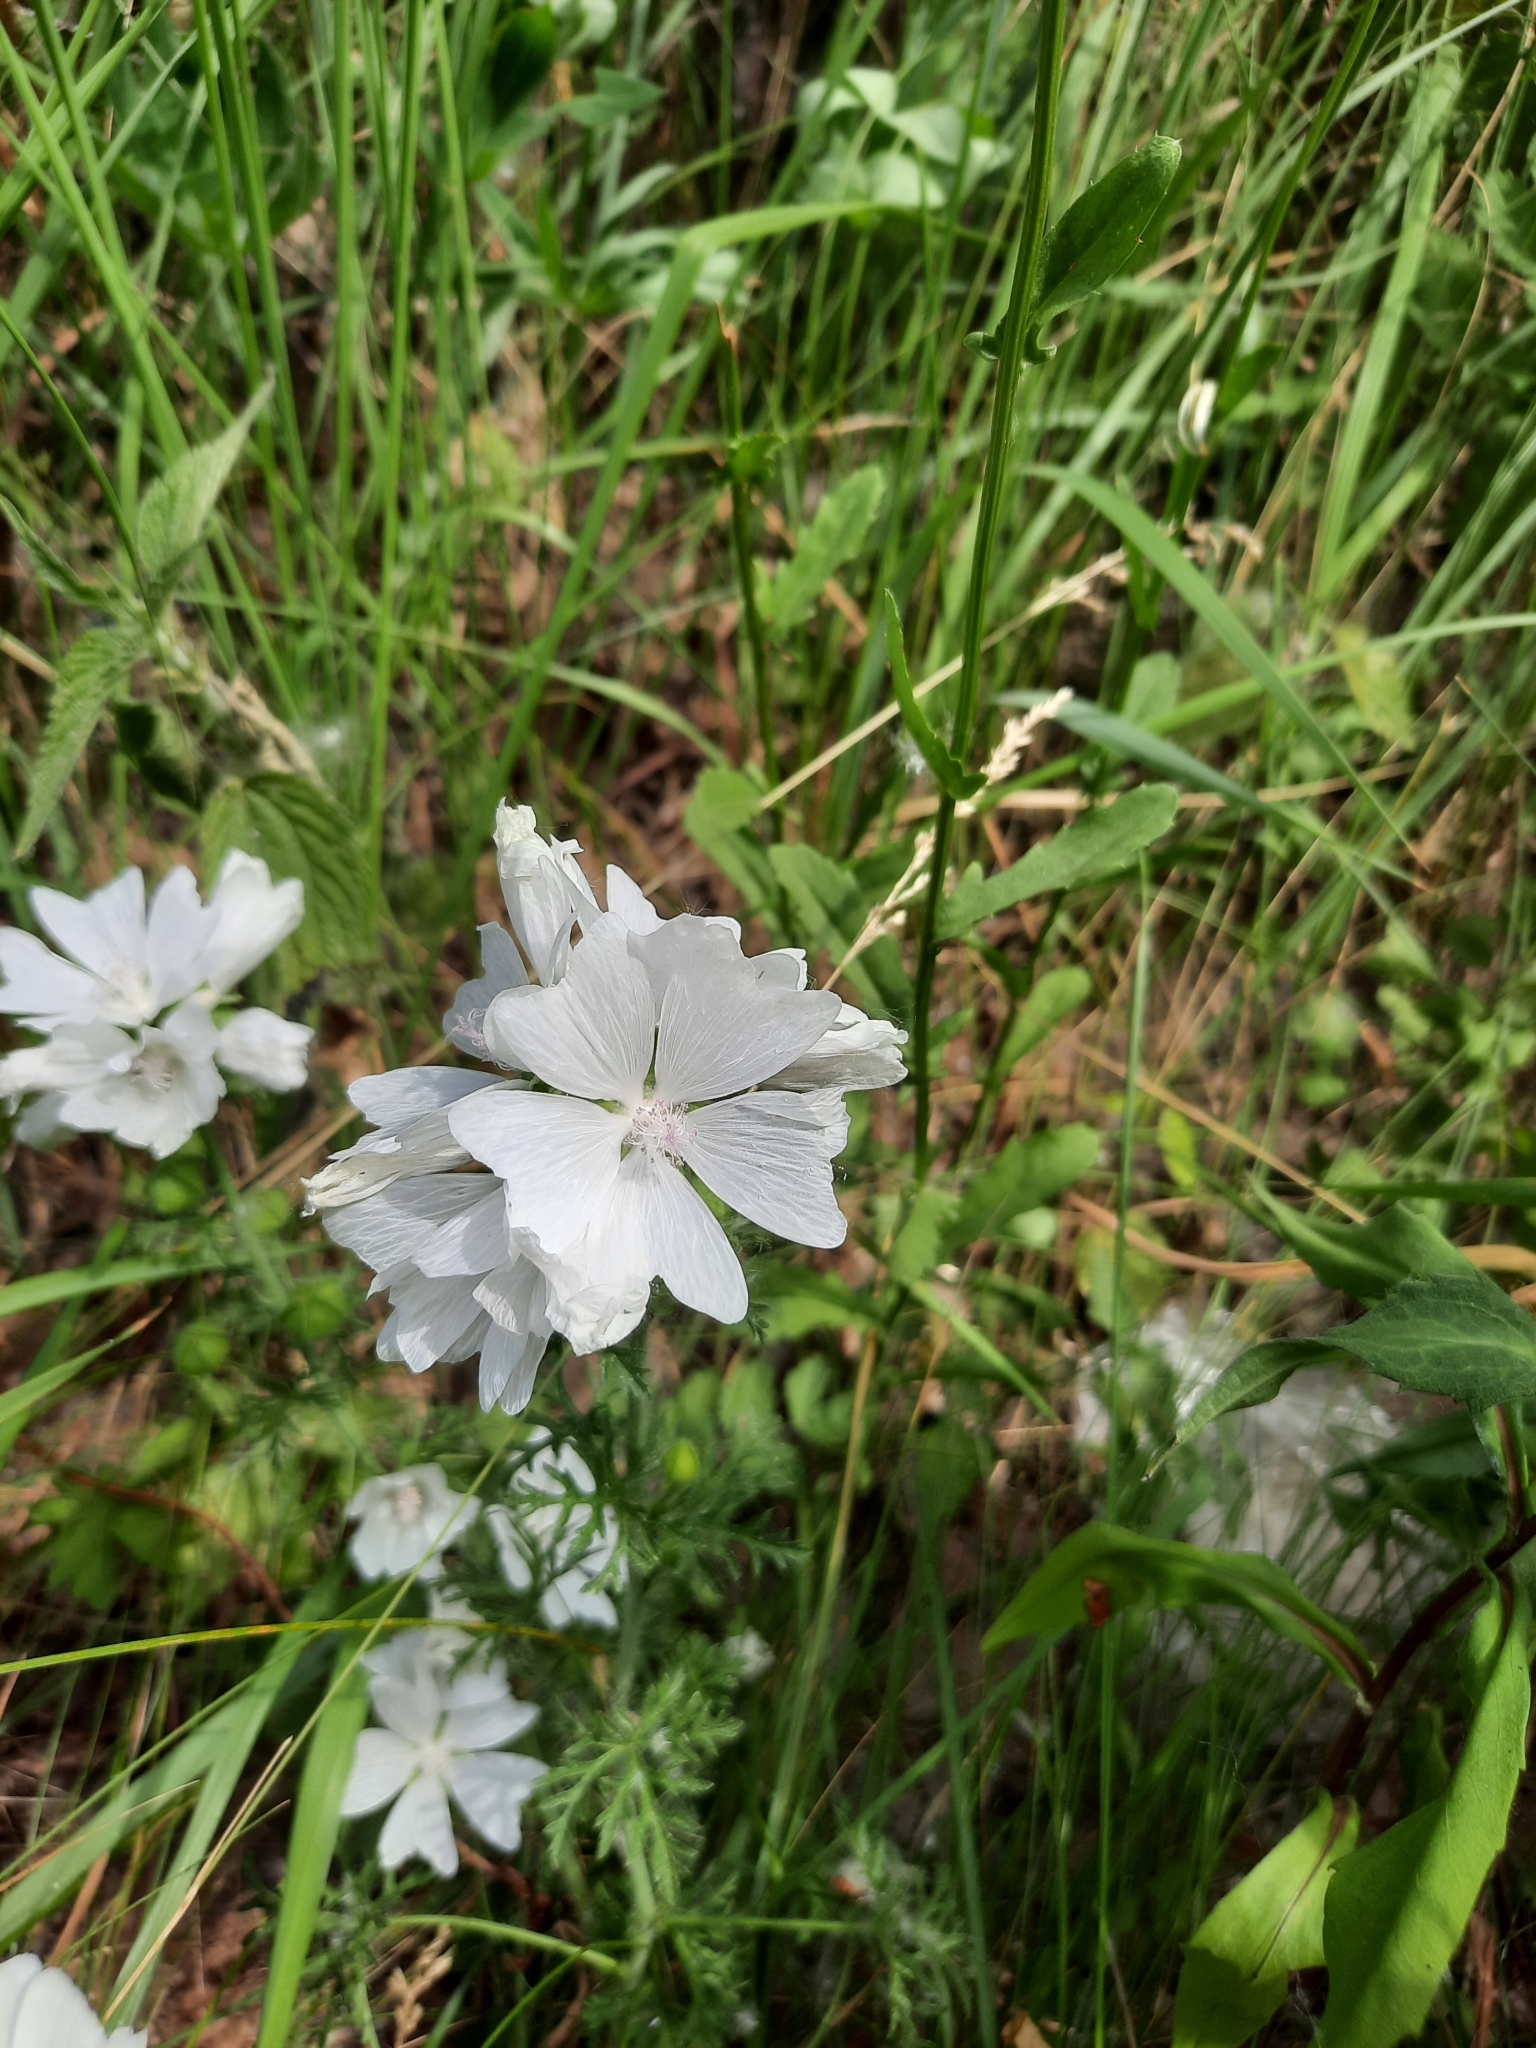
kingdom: Plantae
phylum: Tracheophyta
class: Magnoliopsida
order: Malvales
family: Malvaceae
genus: Malva
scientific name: Malva moschata
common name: Musk mallow
